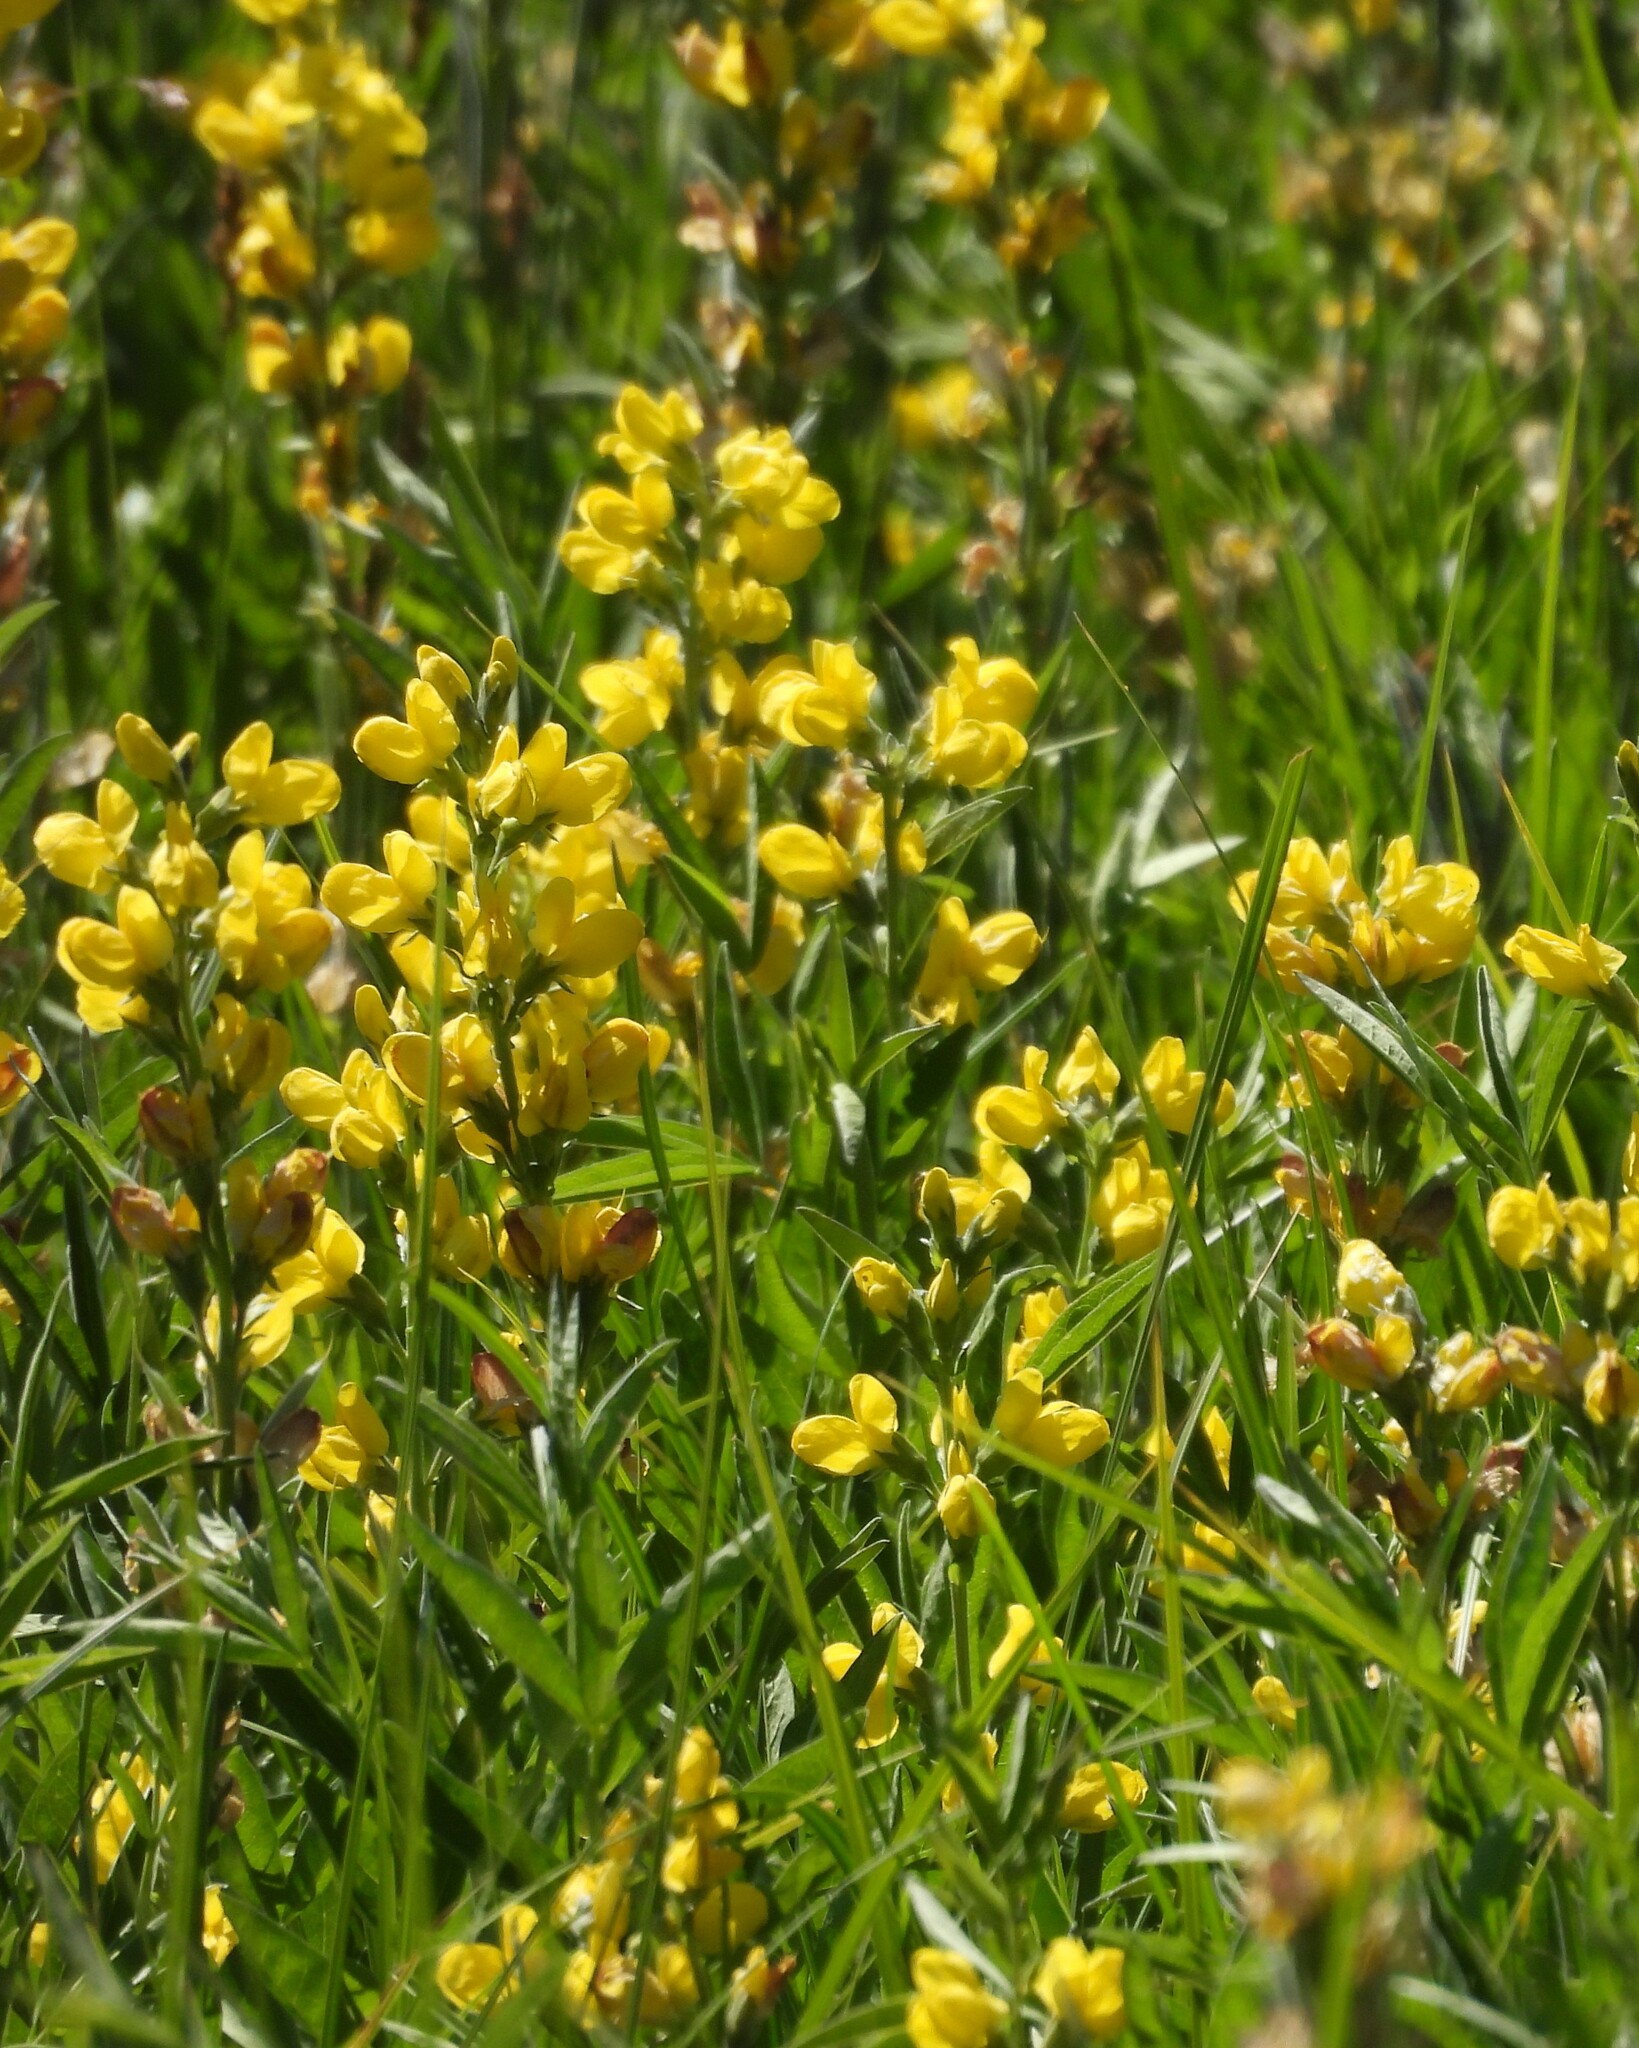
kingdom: Plantae
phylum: Tracheophyta
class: Magnoliopsida
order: Fabales
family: Fabaceae
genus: Thermopsis
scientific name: Thermopsis montana
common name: False lupin
